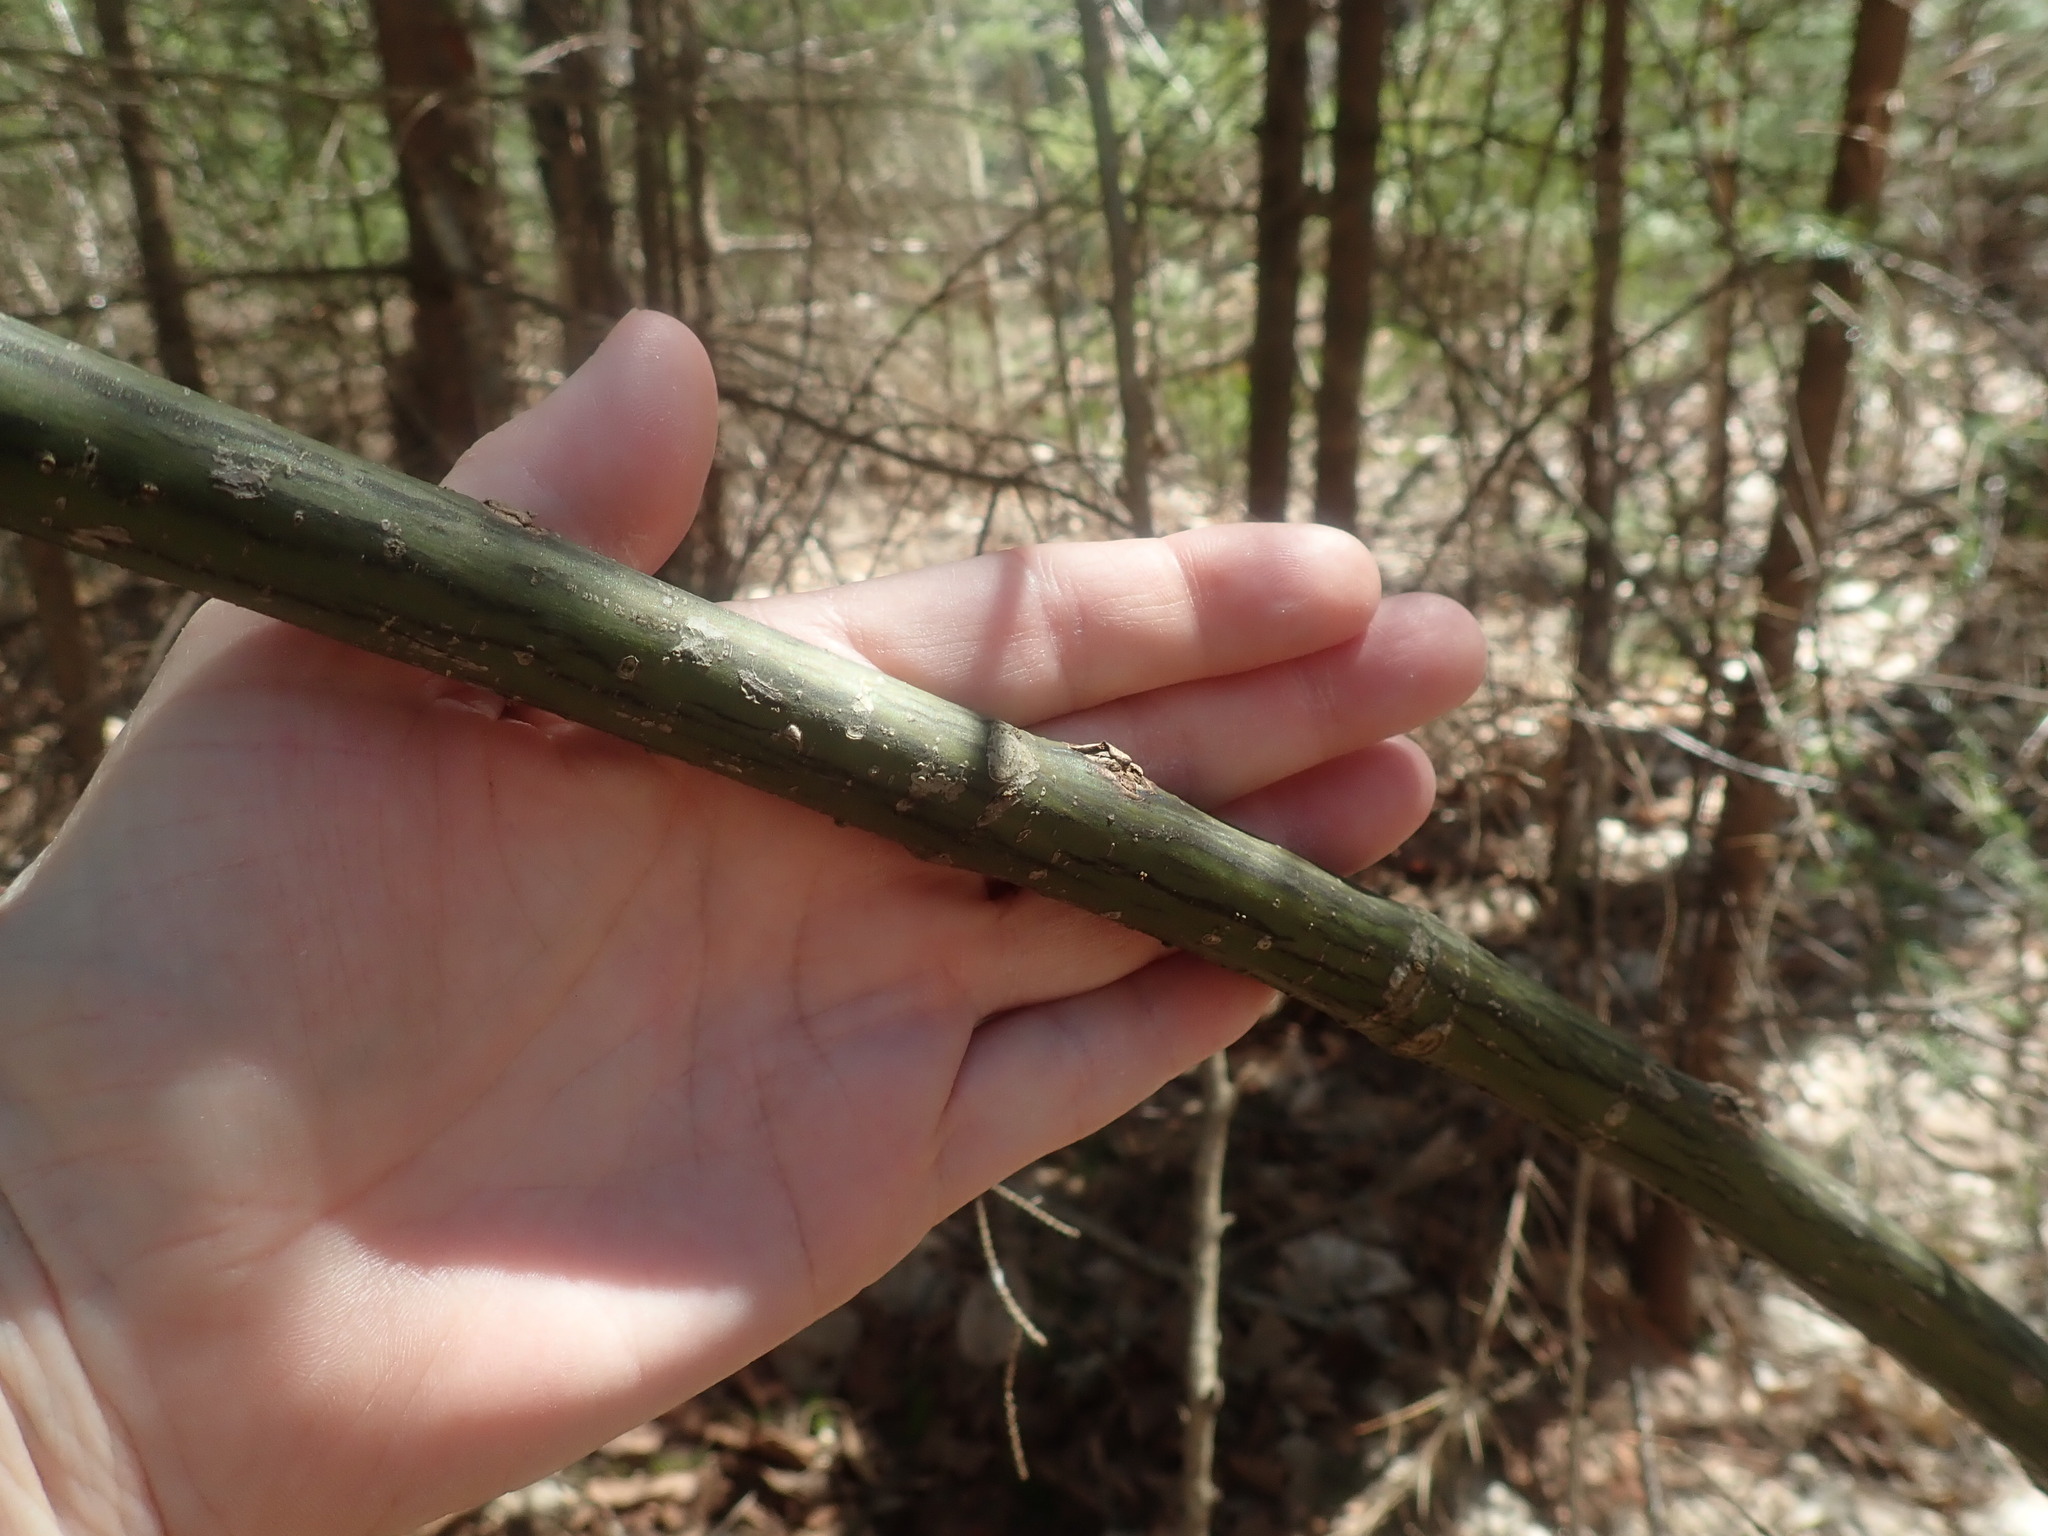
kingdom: Plantae
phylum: Tracheophyta
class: Magnoliopsida
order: Sapindales
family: Sapindaceae
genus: Acer
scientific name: Acer pensylvanicum
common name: Moosewood
